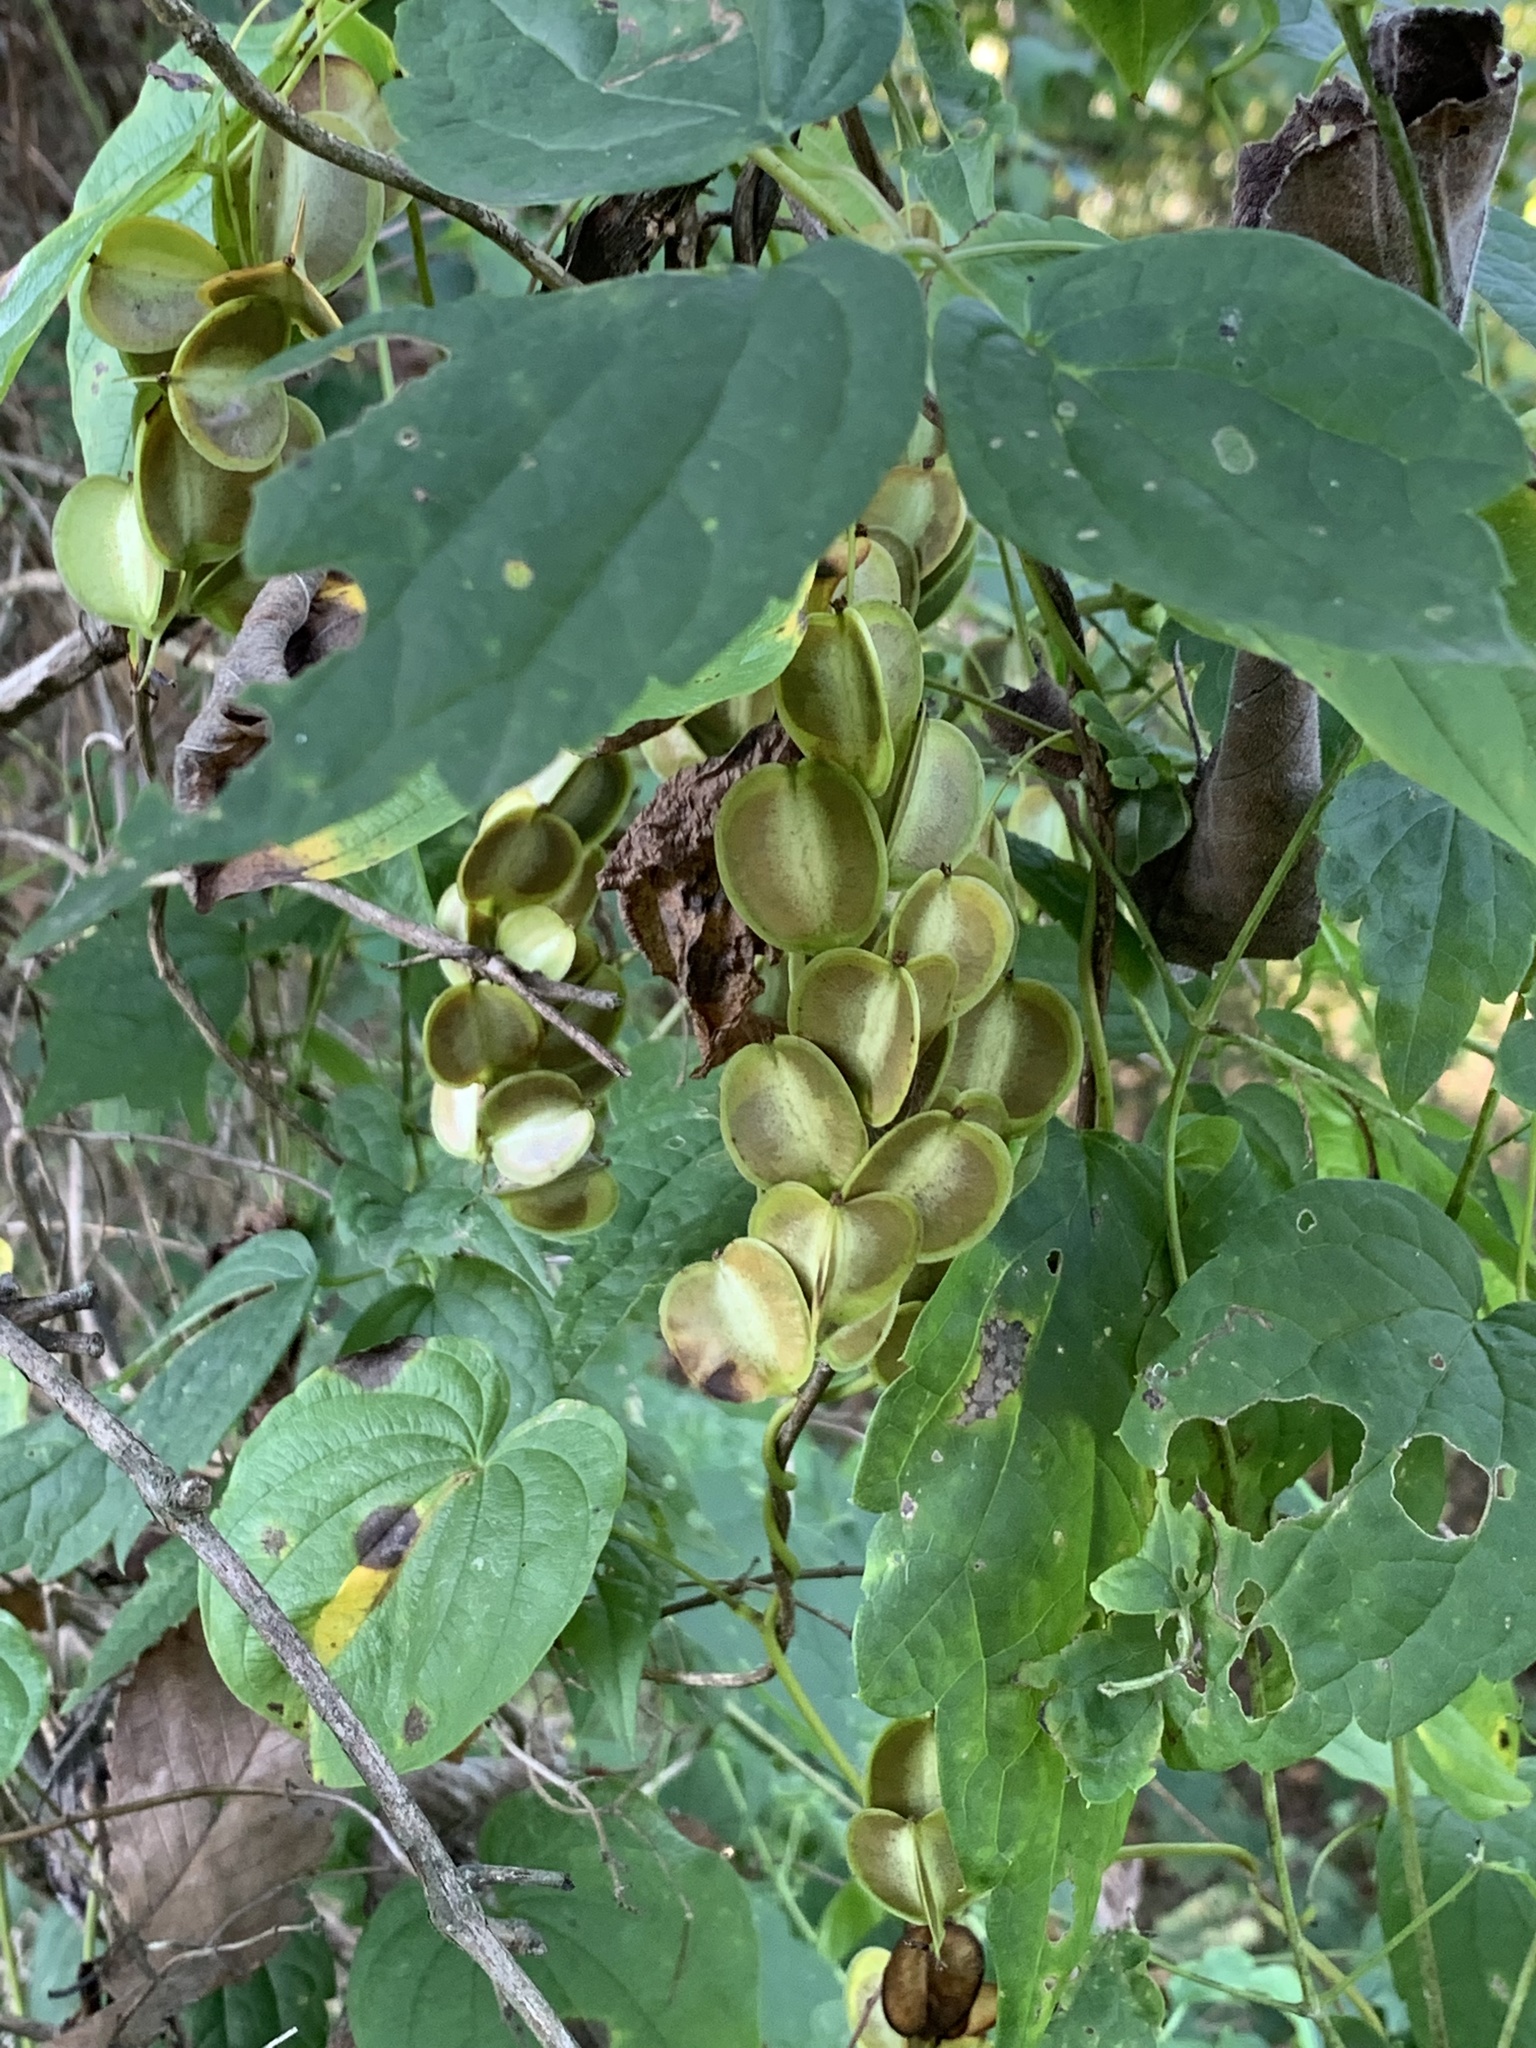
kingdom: Plantae
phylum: Tracheophyta
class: Liliopsida
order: Dioscoreales
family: Dioscoreaceae
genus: Dioscorea
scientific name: Dioscorea villosa
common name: Wild yam
